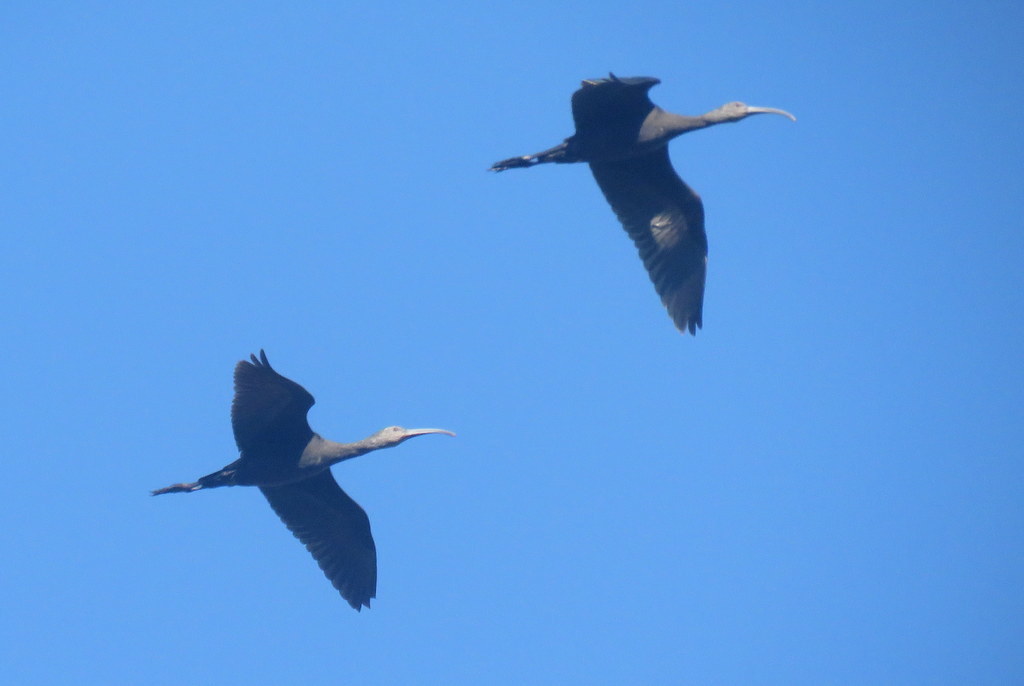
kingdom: Animalia
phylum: Chordata
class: Aves
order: Pelecaniformes
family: Threskiornithidae
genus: Plegadis
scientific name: Plegadis chihi
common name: White-faced ibis
